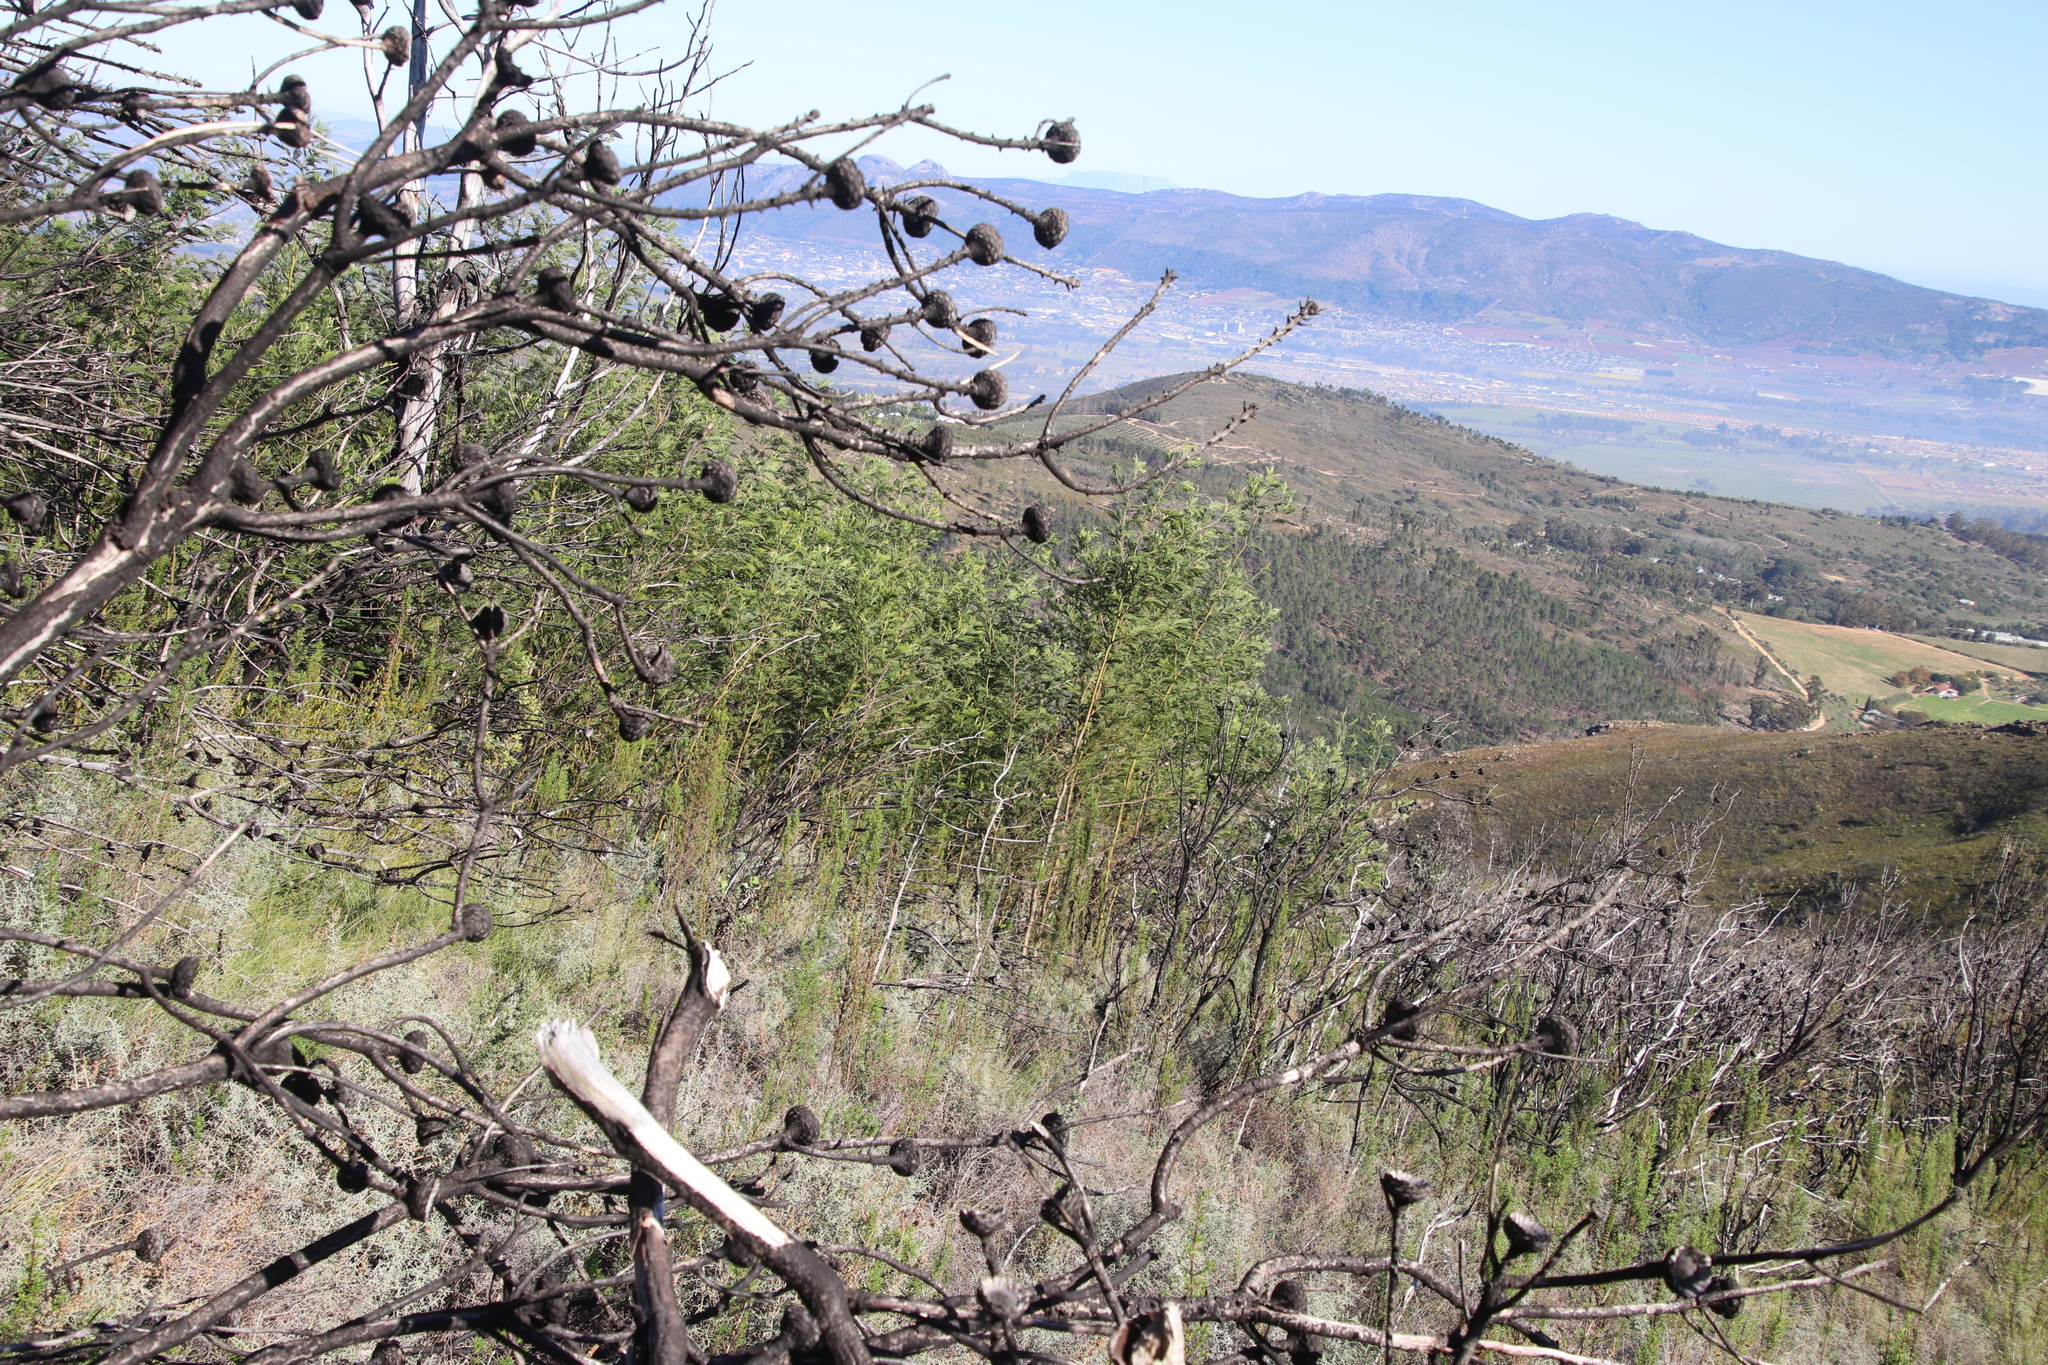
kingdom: Plantae
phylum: Tracheophyta
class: Magnoliopsida
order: Fabales
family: Fabaceae
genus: Acacia
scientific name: Acacia mearnsii
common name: Black wattle
